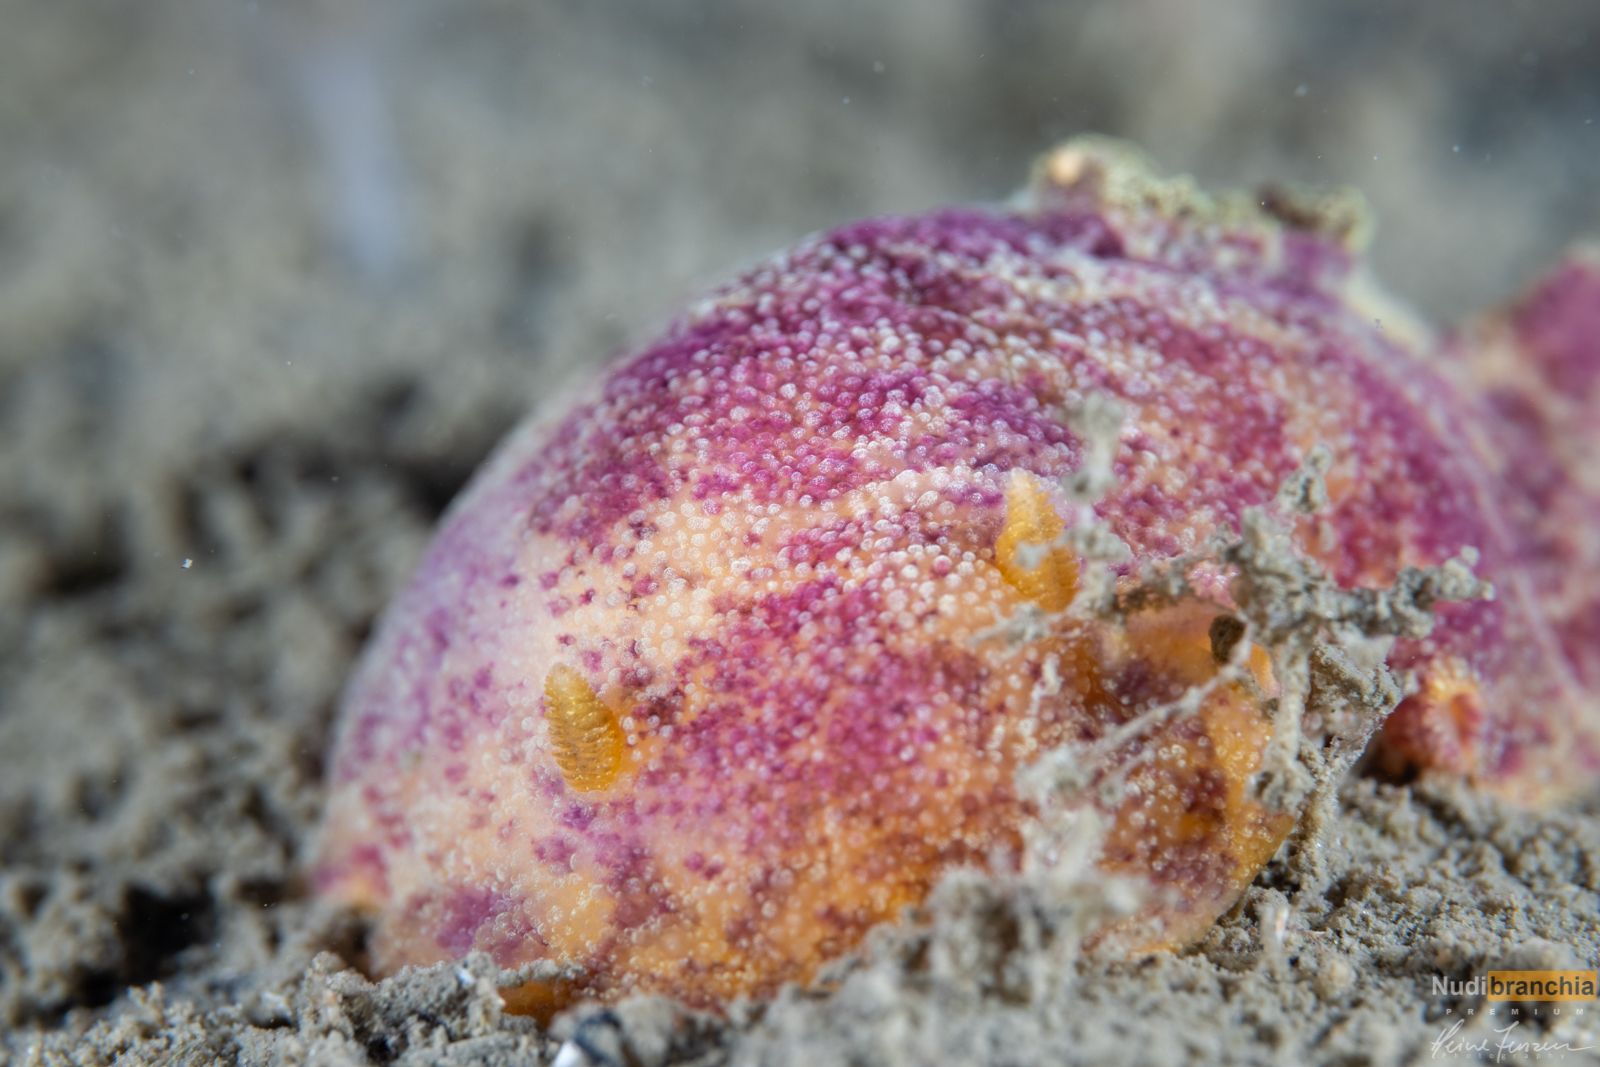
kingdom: Animalia
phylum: Mollusca
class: Gastropoda
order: Nudibranchia
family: Dorididae
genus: Doris
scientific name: Doris pseudoargus
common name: Sea lemon
